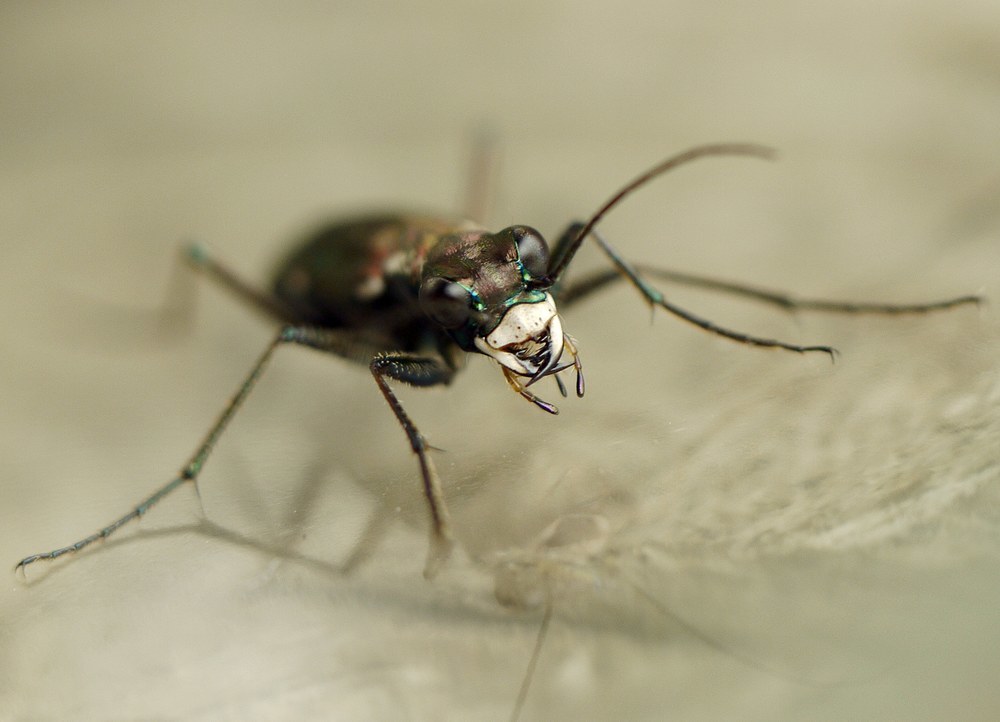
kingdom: Animalia
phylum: Arthropoda
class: Insecta
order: Coleoptera
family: Carabidae
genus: Cylindera
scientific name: Cylindera germanica
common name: Cliff tiger beetle
